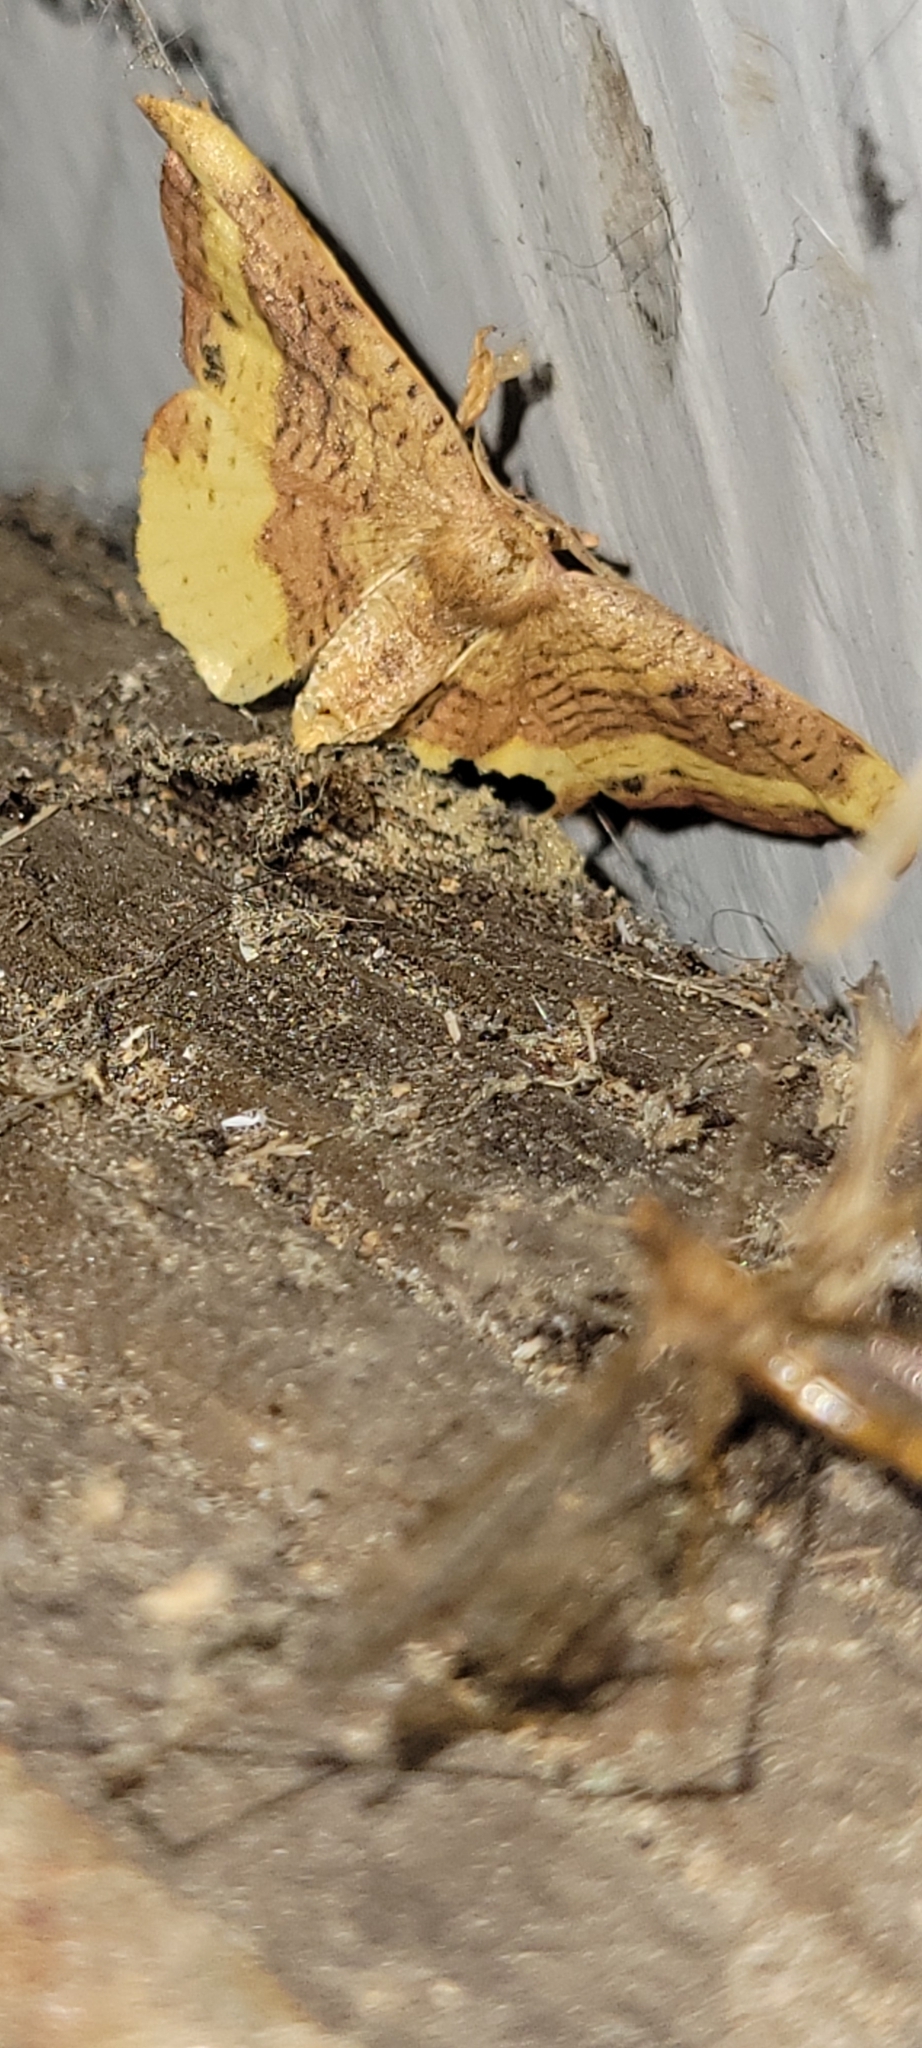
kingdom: Animalia
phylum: Arthropoda
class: Insecta
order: Lepidoptera
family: Drepanidae
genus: Oreta
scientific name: Oreta rosea
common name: Rose hooktip
